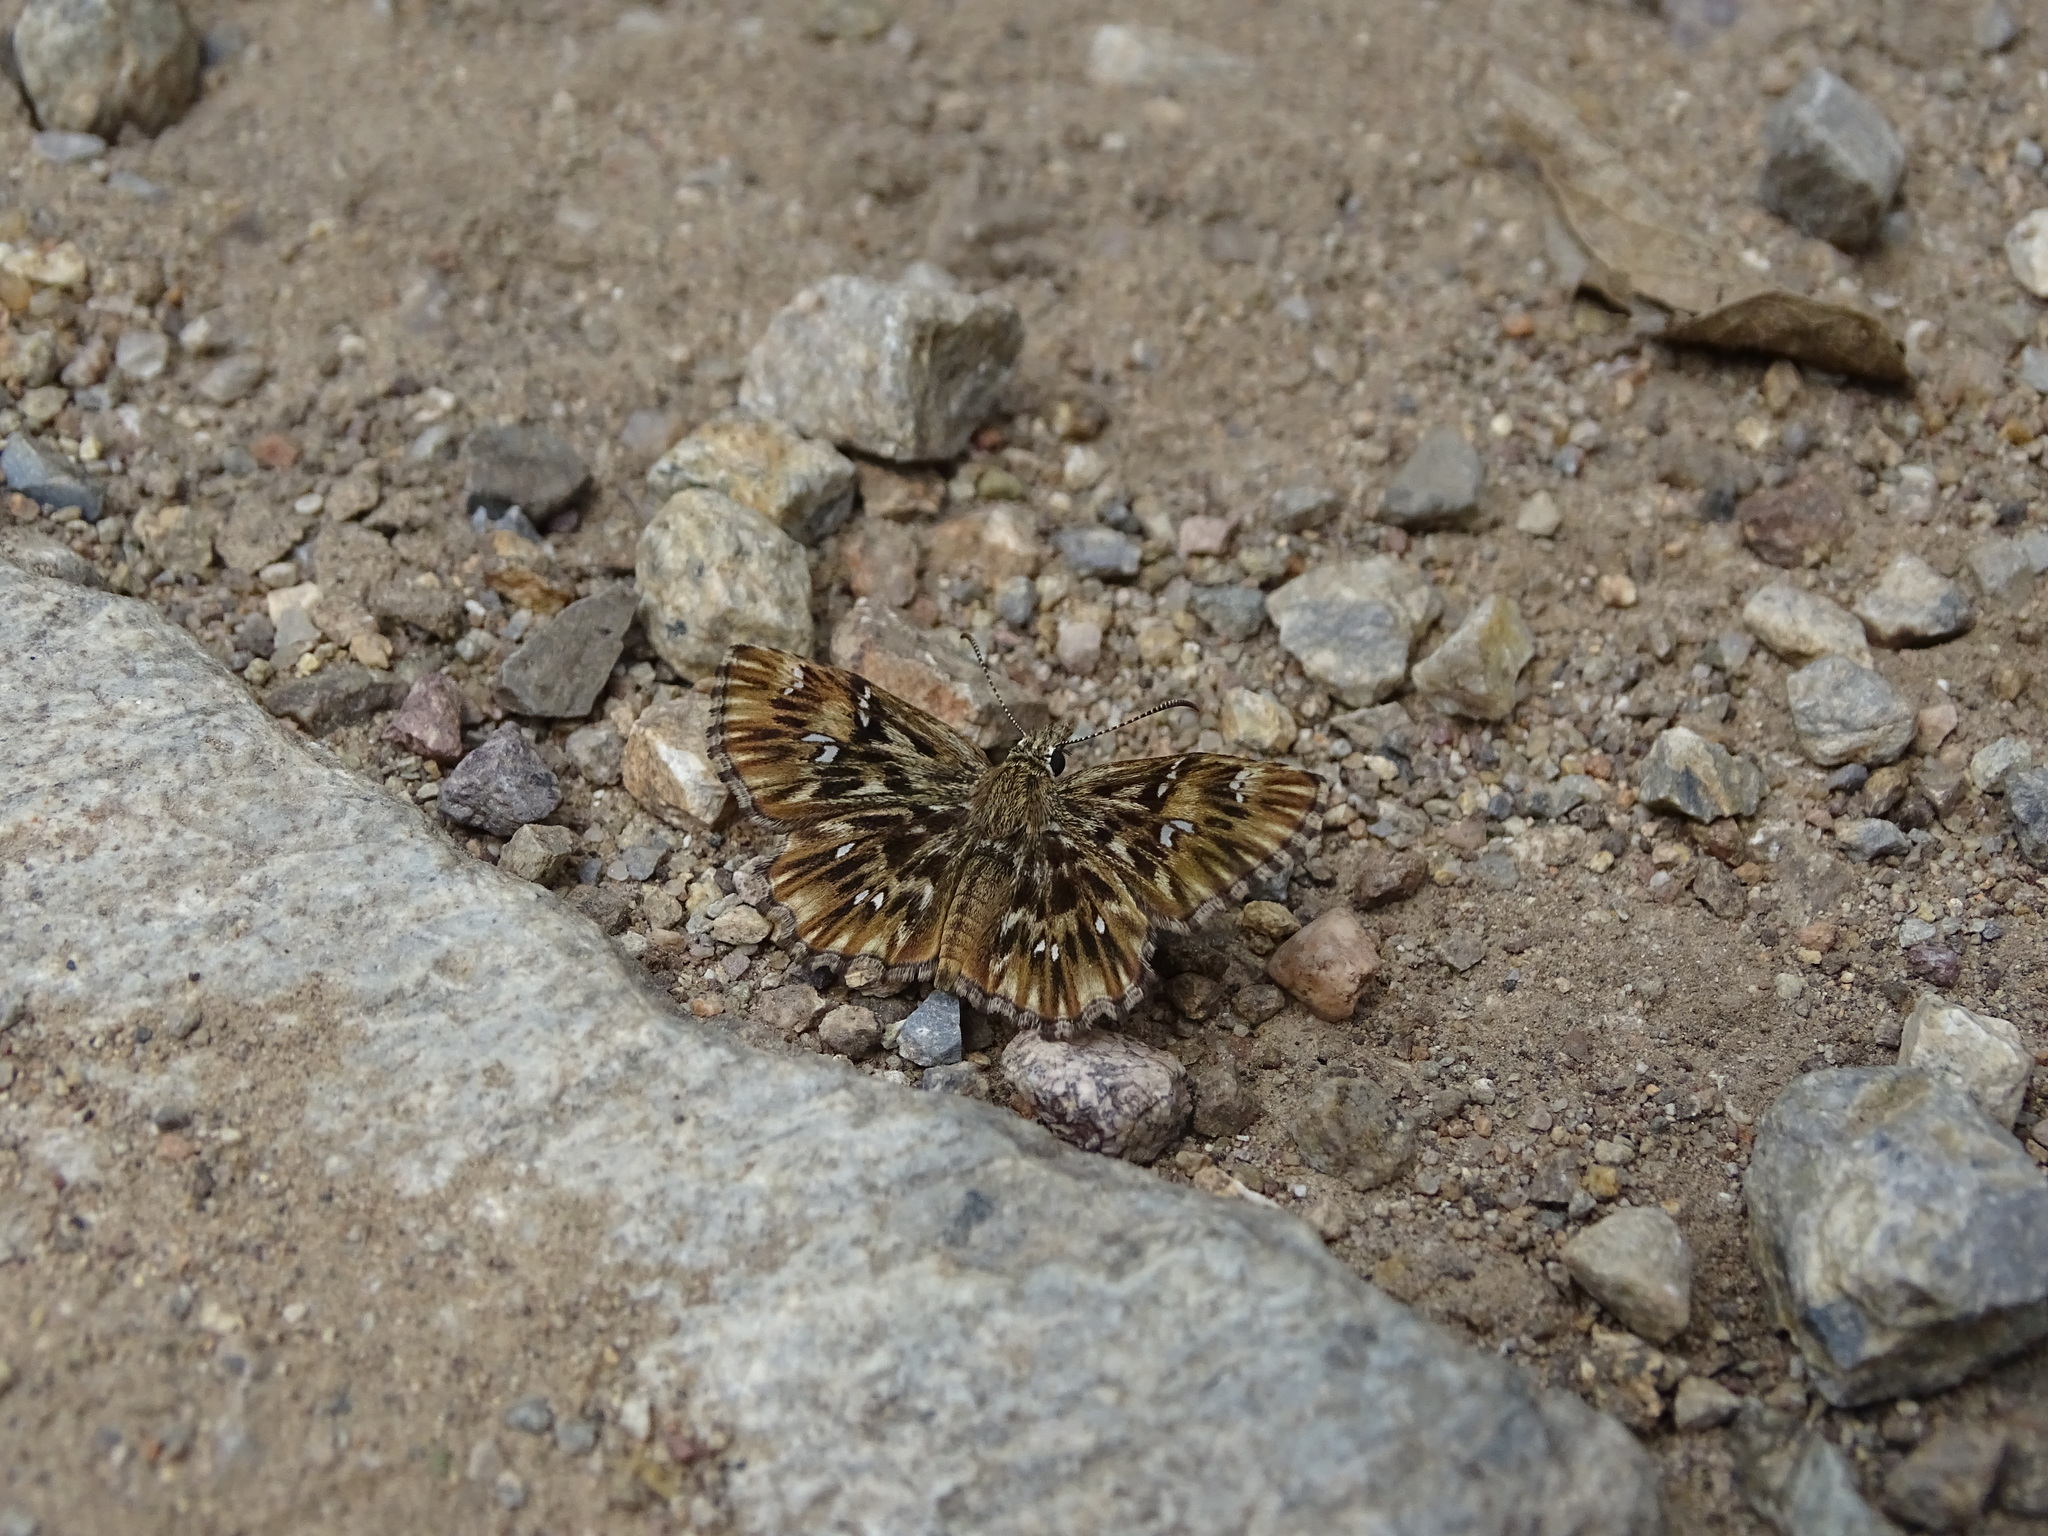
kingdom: Animalia
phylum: Arthropoda
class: Insecta
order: Lepidoptera
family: Hesperiidae
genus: Celotes
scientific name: Celotes nessus
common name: Common streaky-skipper
